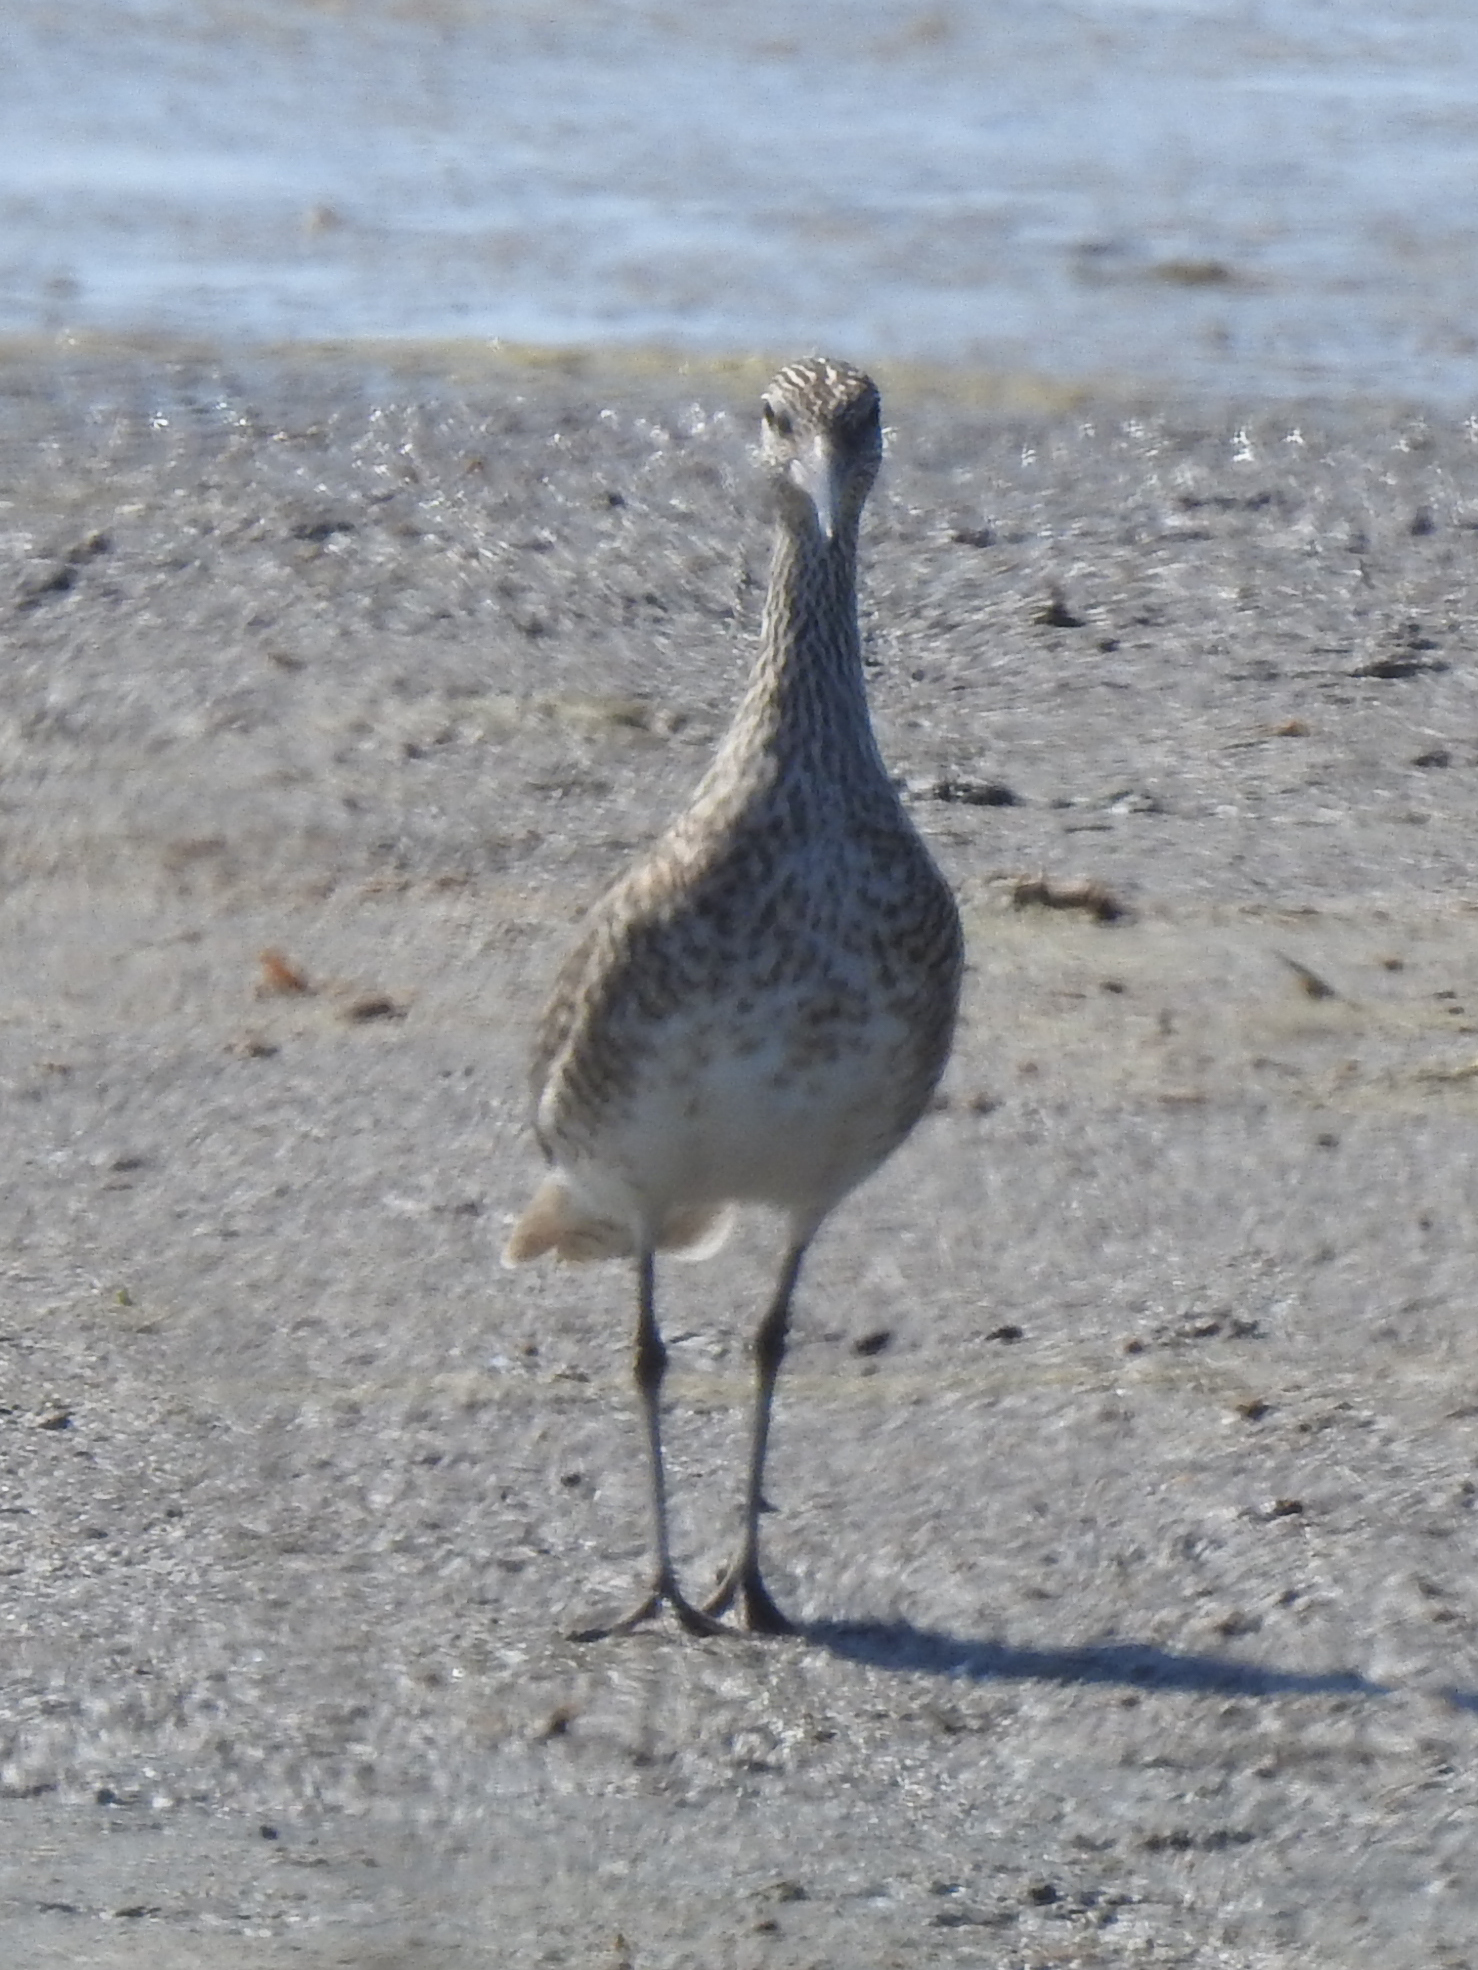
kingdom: Animalia
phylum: Chordata
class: Aves
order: Charadriiformes
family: Scolopacidae
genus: Tringa
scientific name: Tringa semipalmata
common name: Willet
